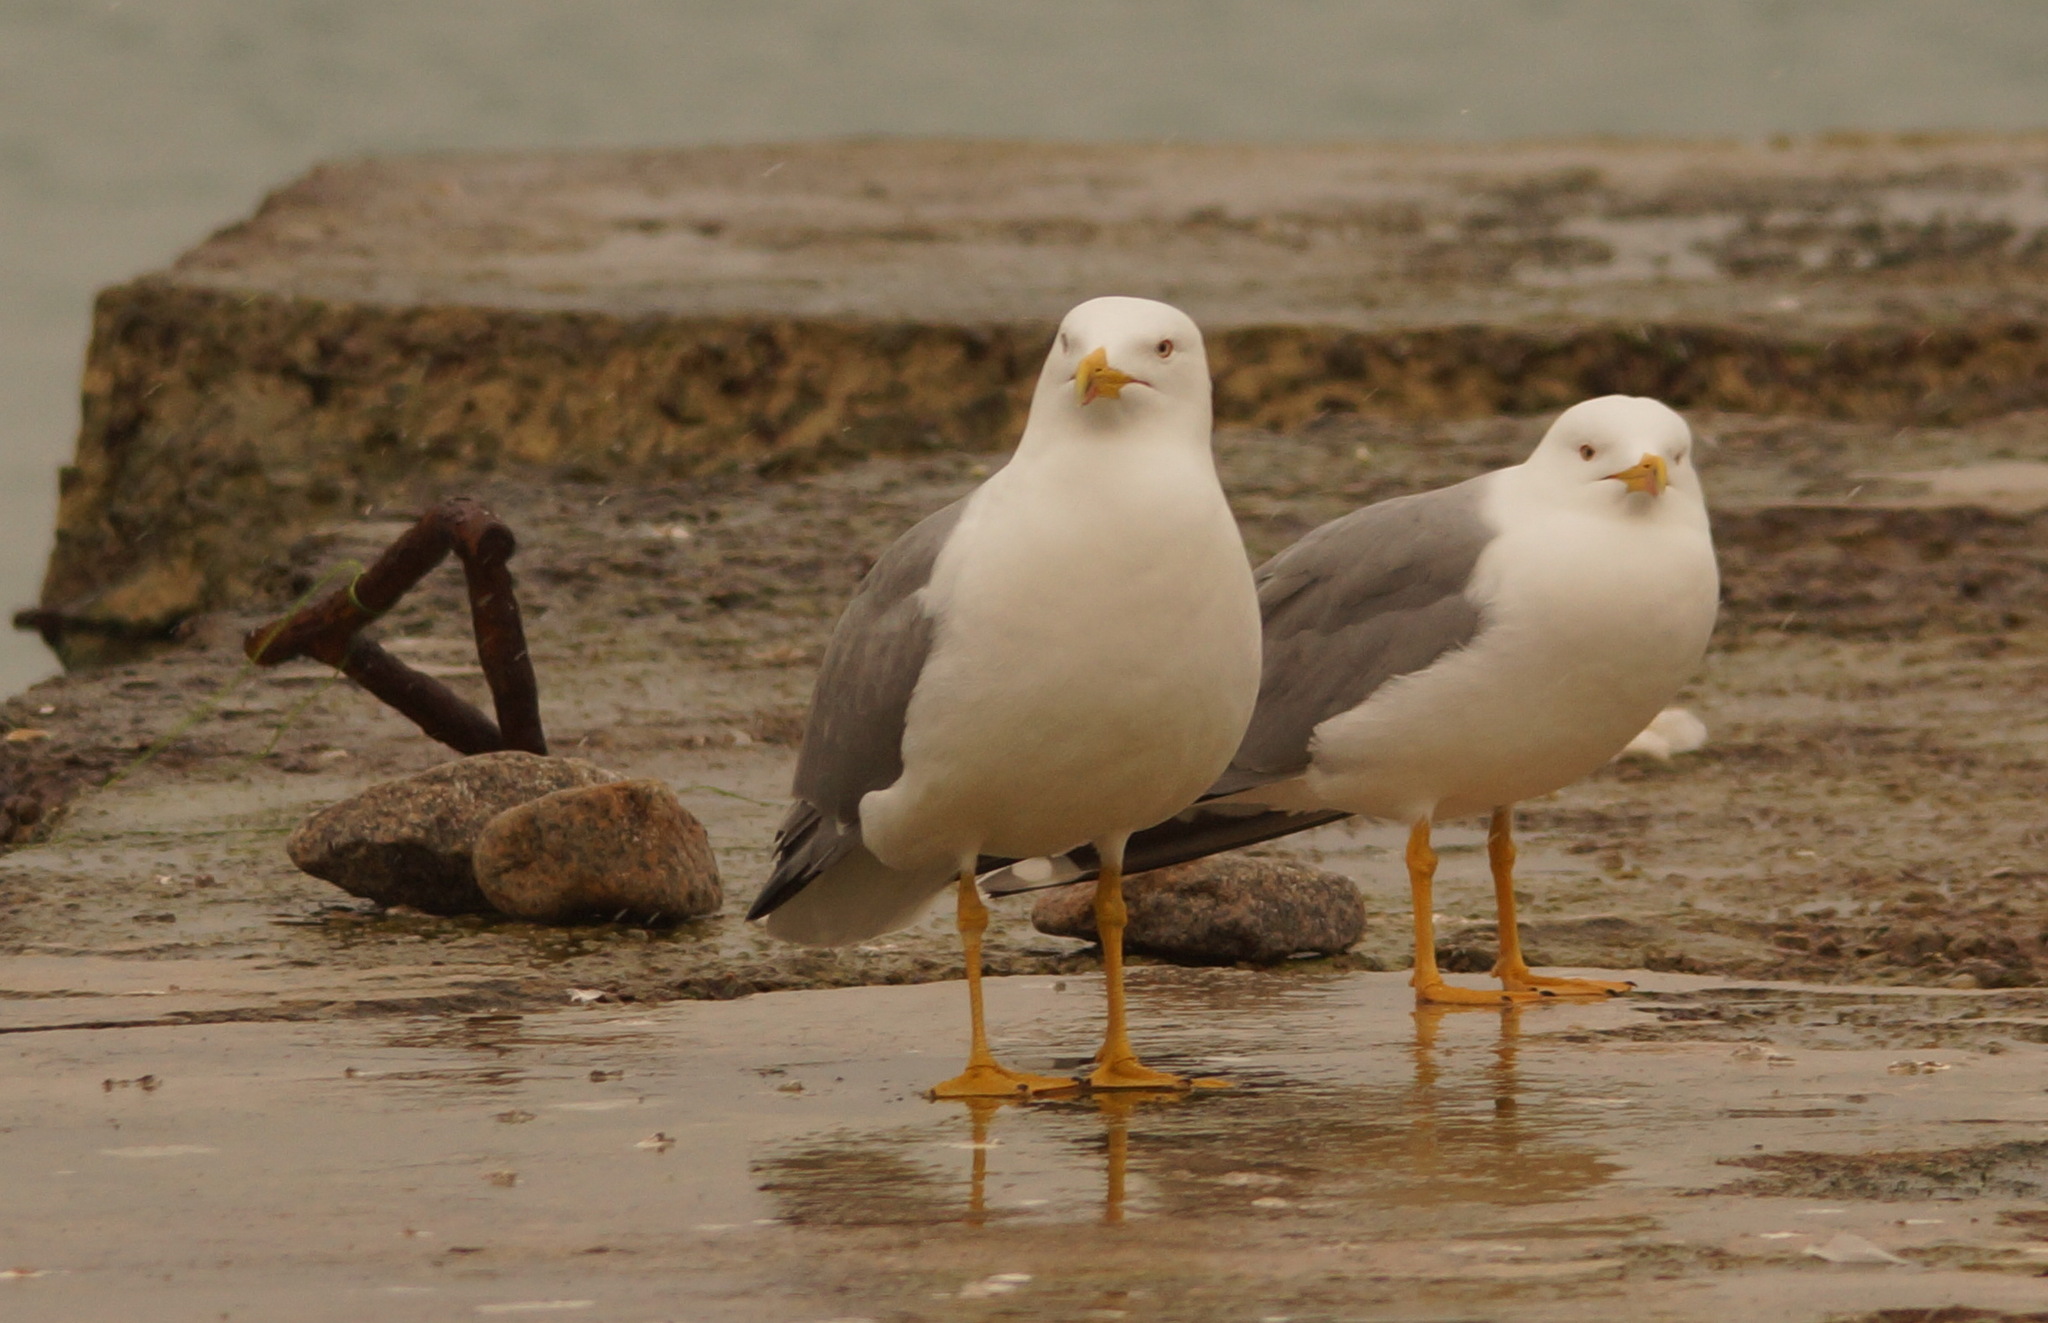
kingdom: Animalia
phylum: Chordata
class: Aves
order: Charadriiformes
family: Laridae
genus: Larus
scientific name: Larus michahellis
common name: Yellow-legged gull
